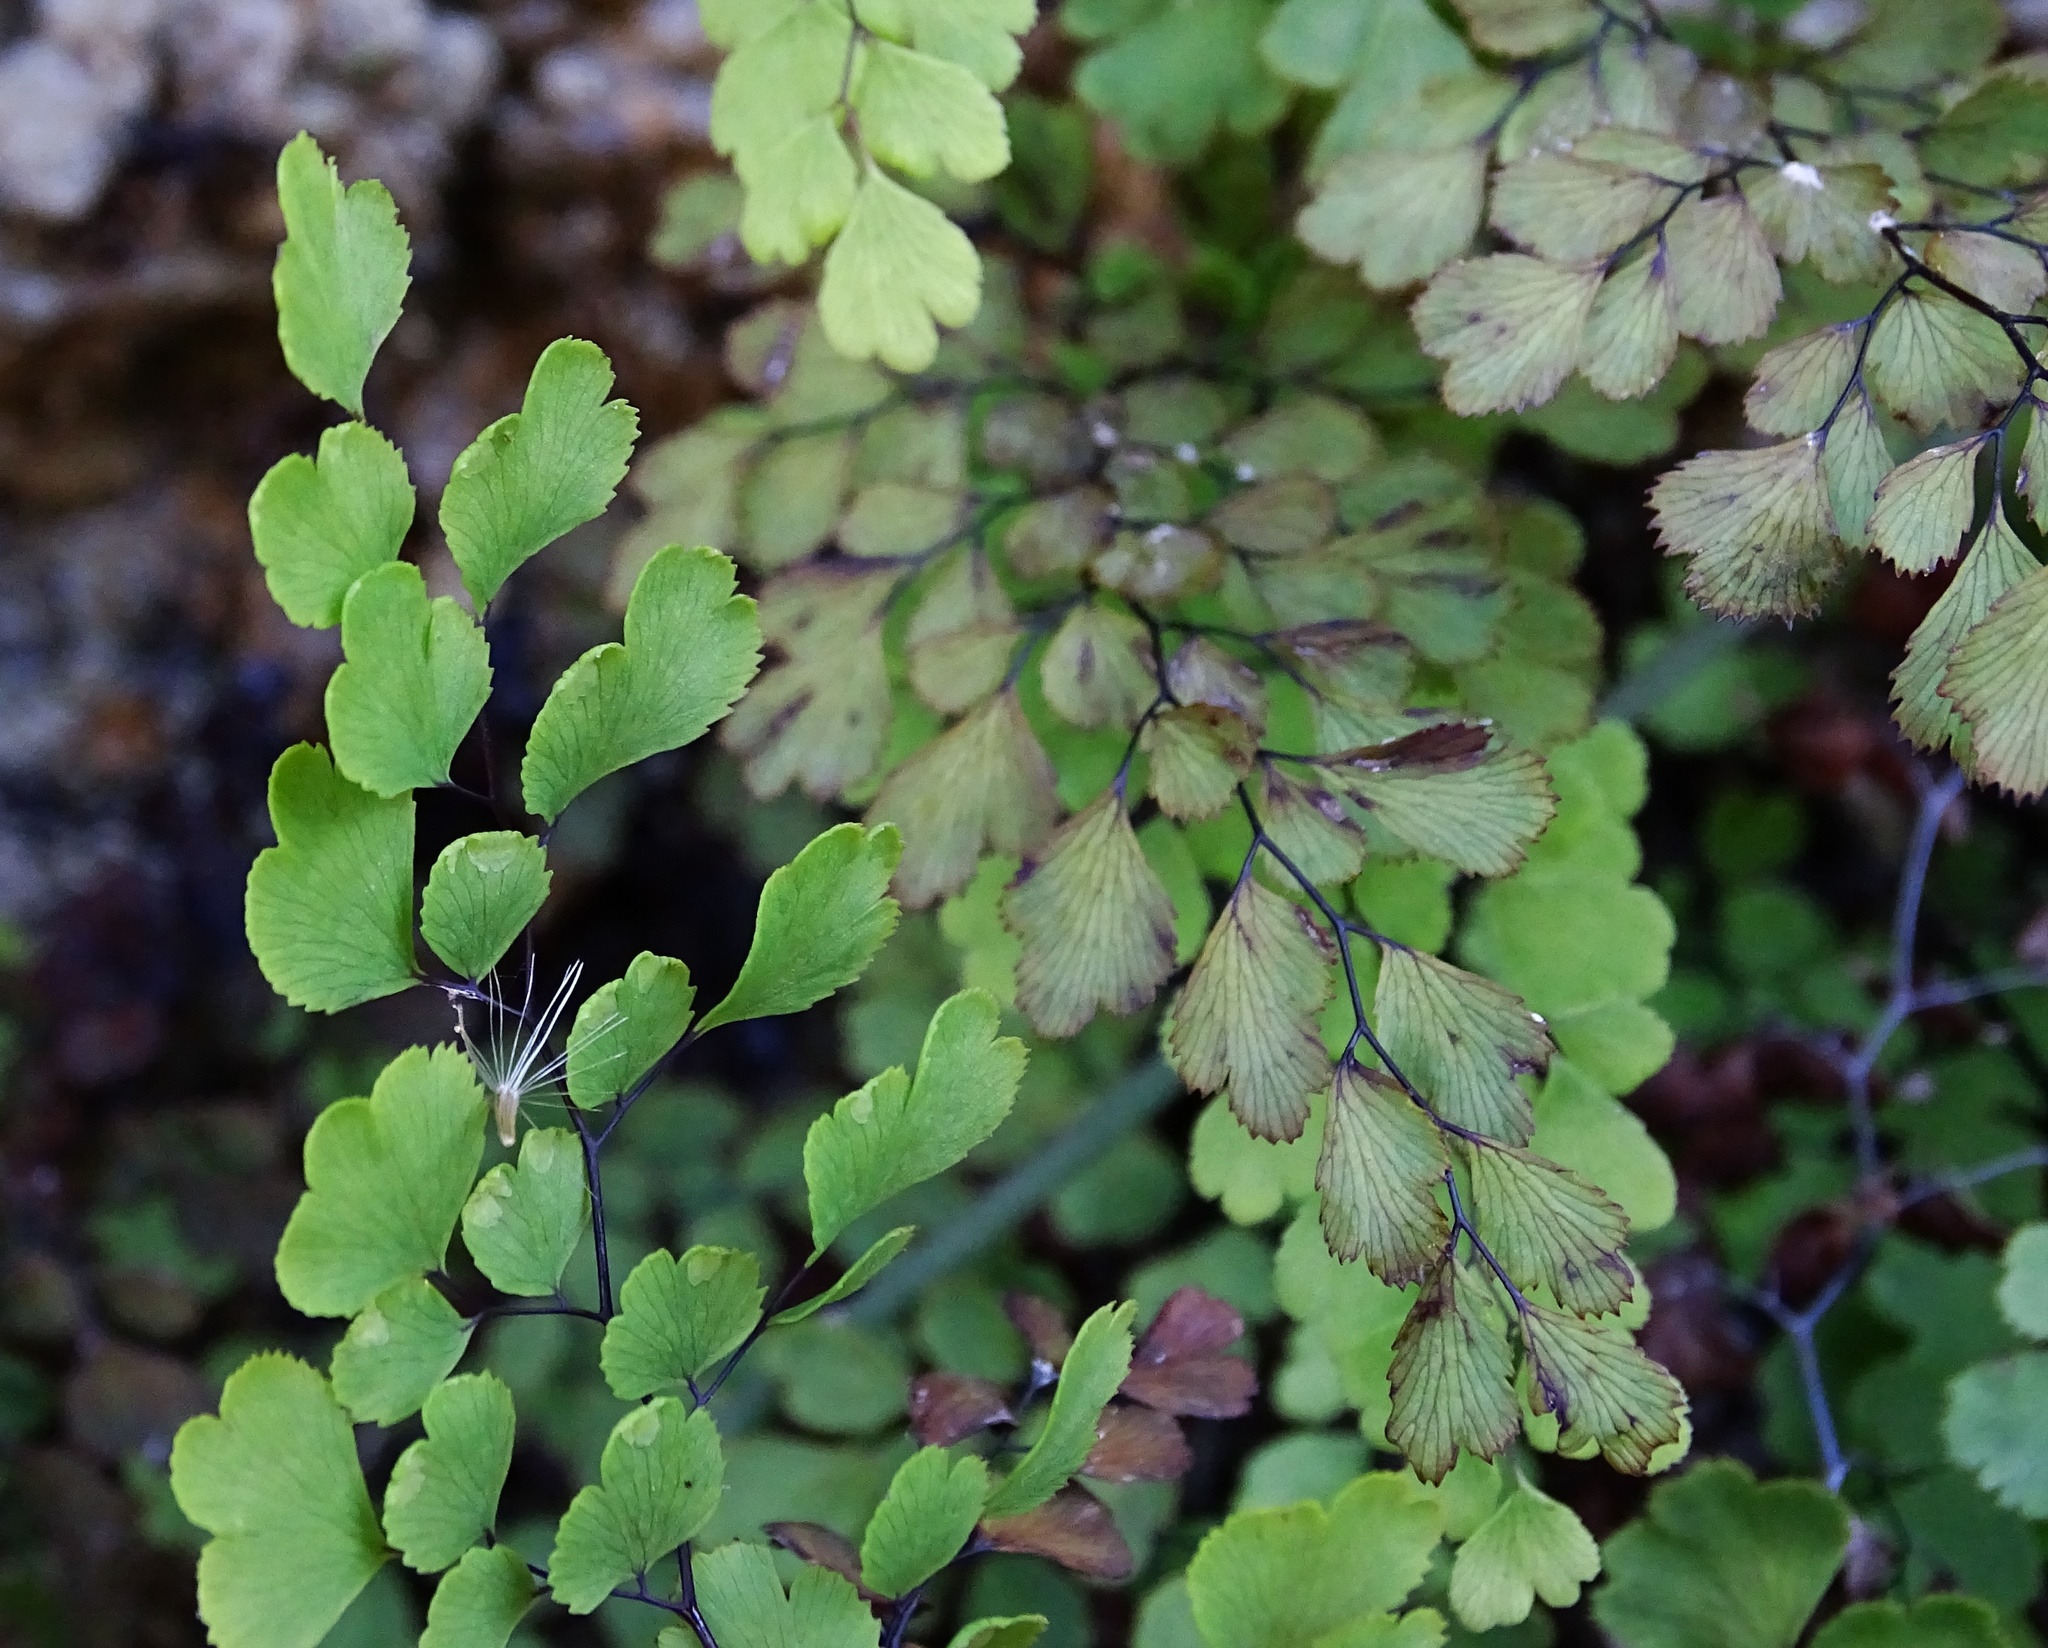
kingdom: Plantae
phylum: Tracheophyta
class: Polypodiopsida
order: Polypodiales
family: Pteridaceae
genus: Adiantum
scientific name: Adiantum capillus-veneris
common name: Maidenhair fern
